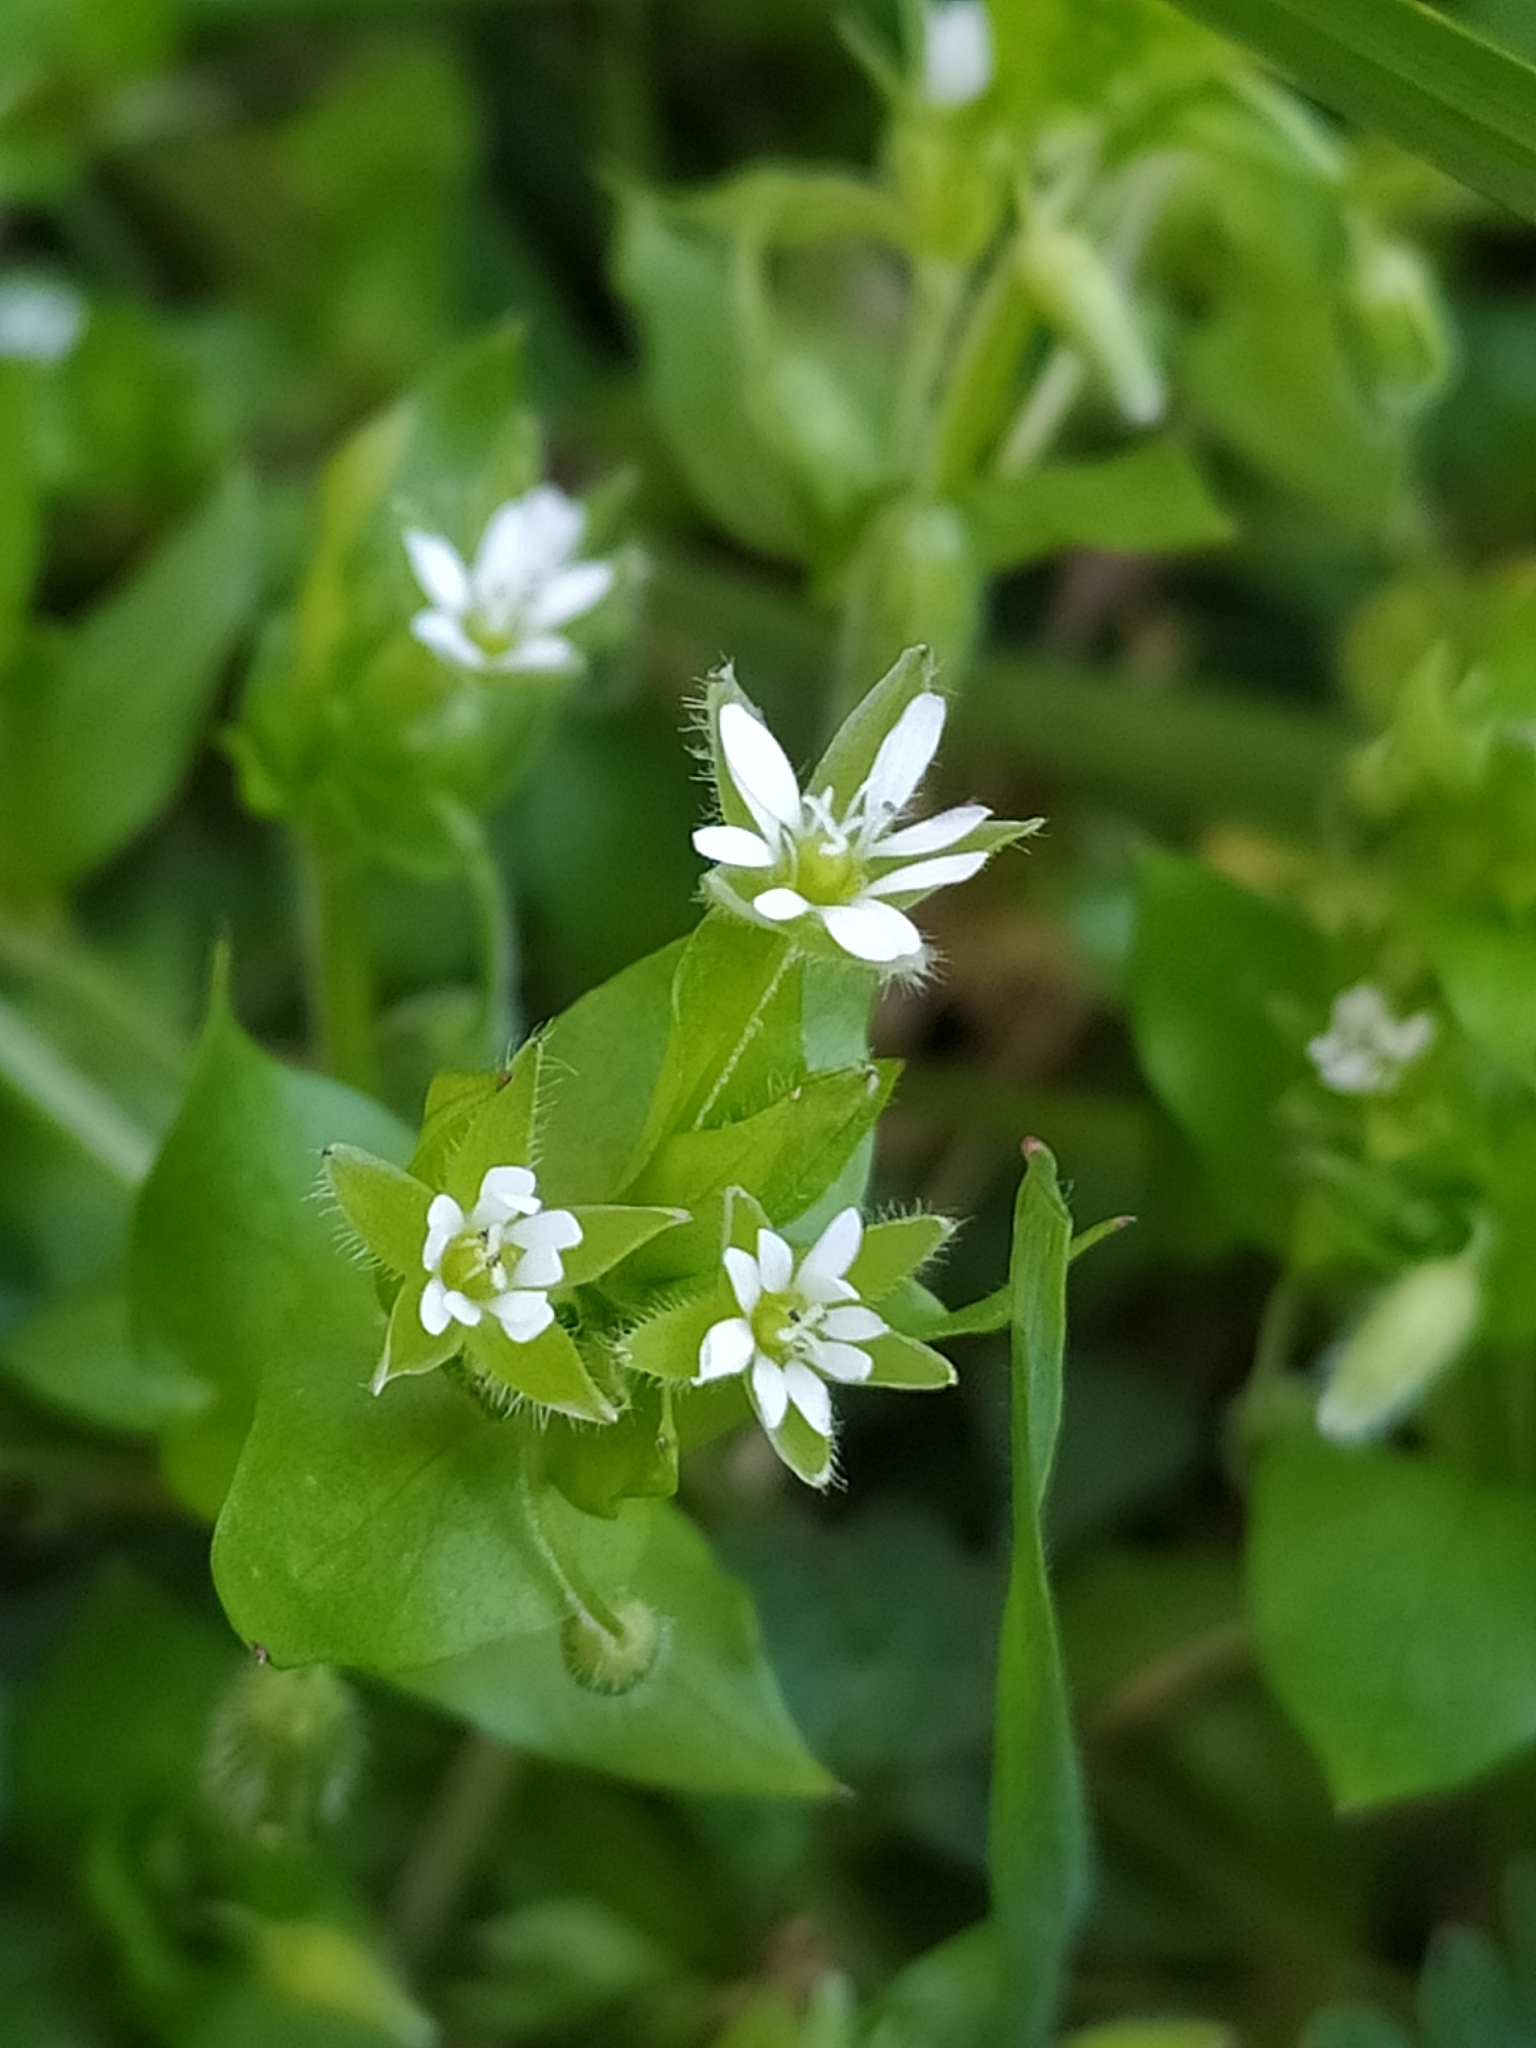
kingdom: Plantae
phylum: Tracheophyta
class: Magnoliopsida
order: Caryophyllales
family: Caryophyllaceae
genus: Stellaria
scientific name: Stellaria media
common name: Common chickweed
